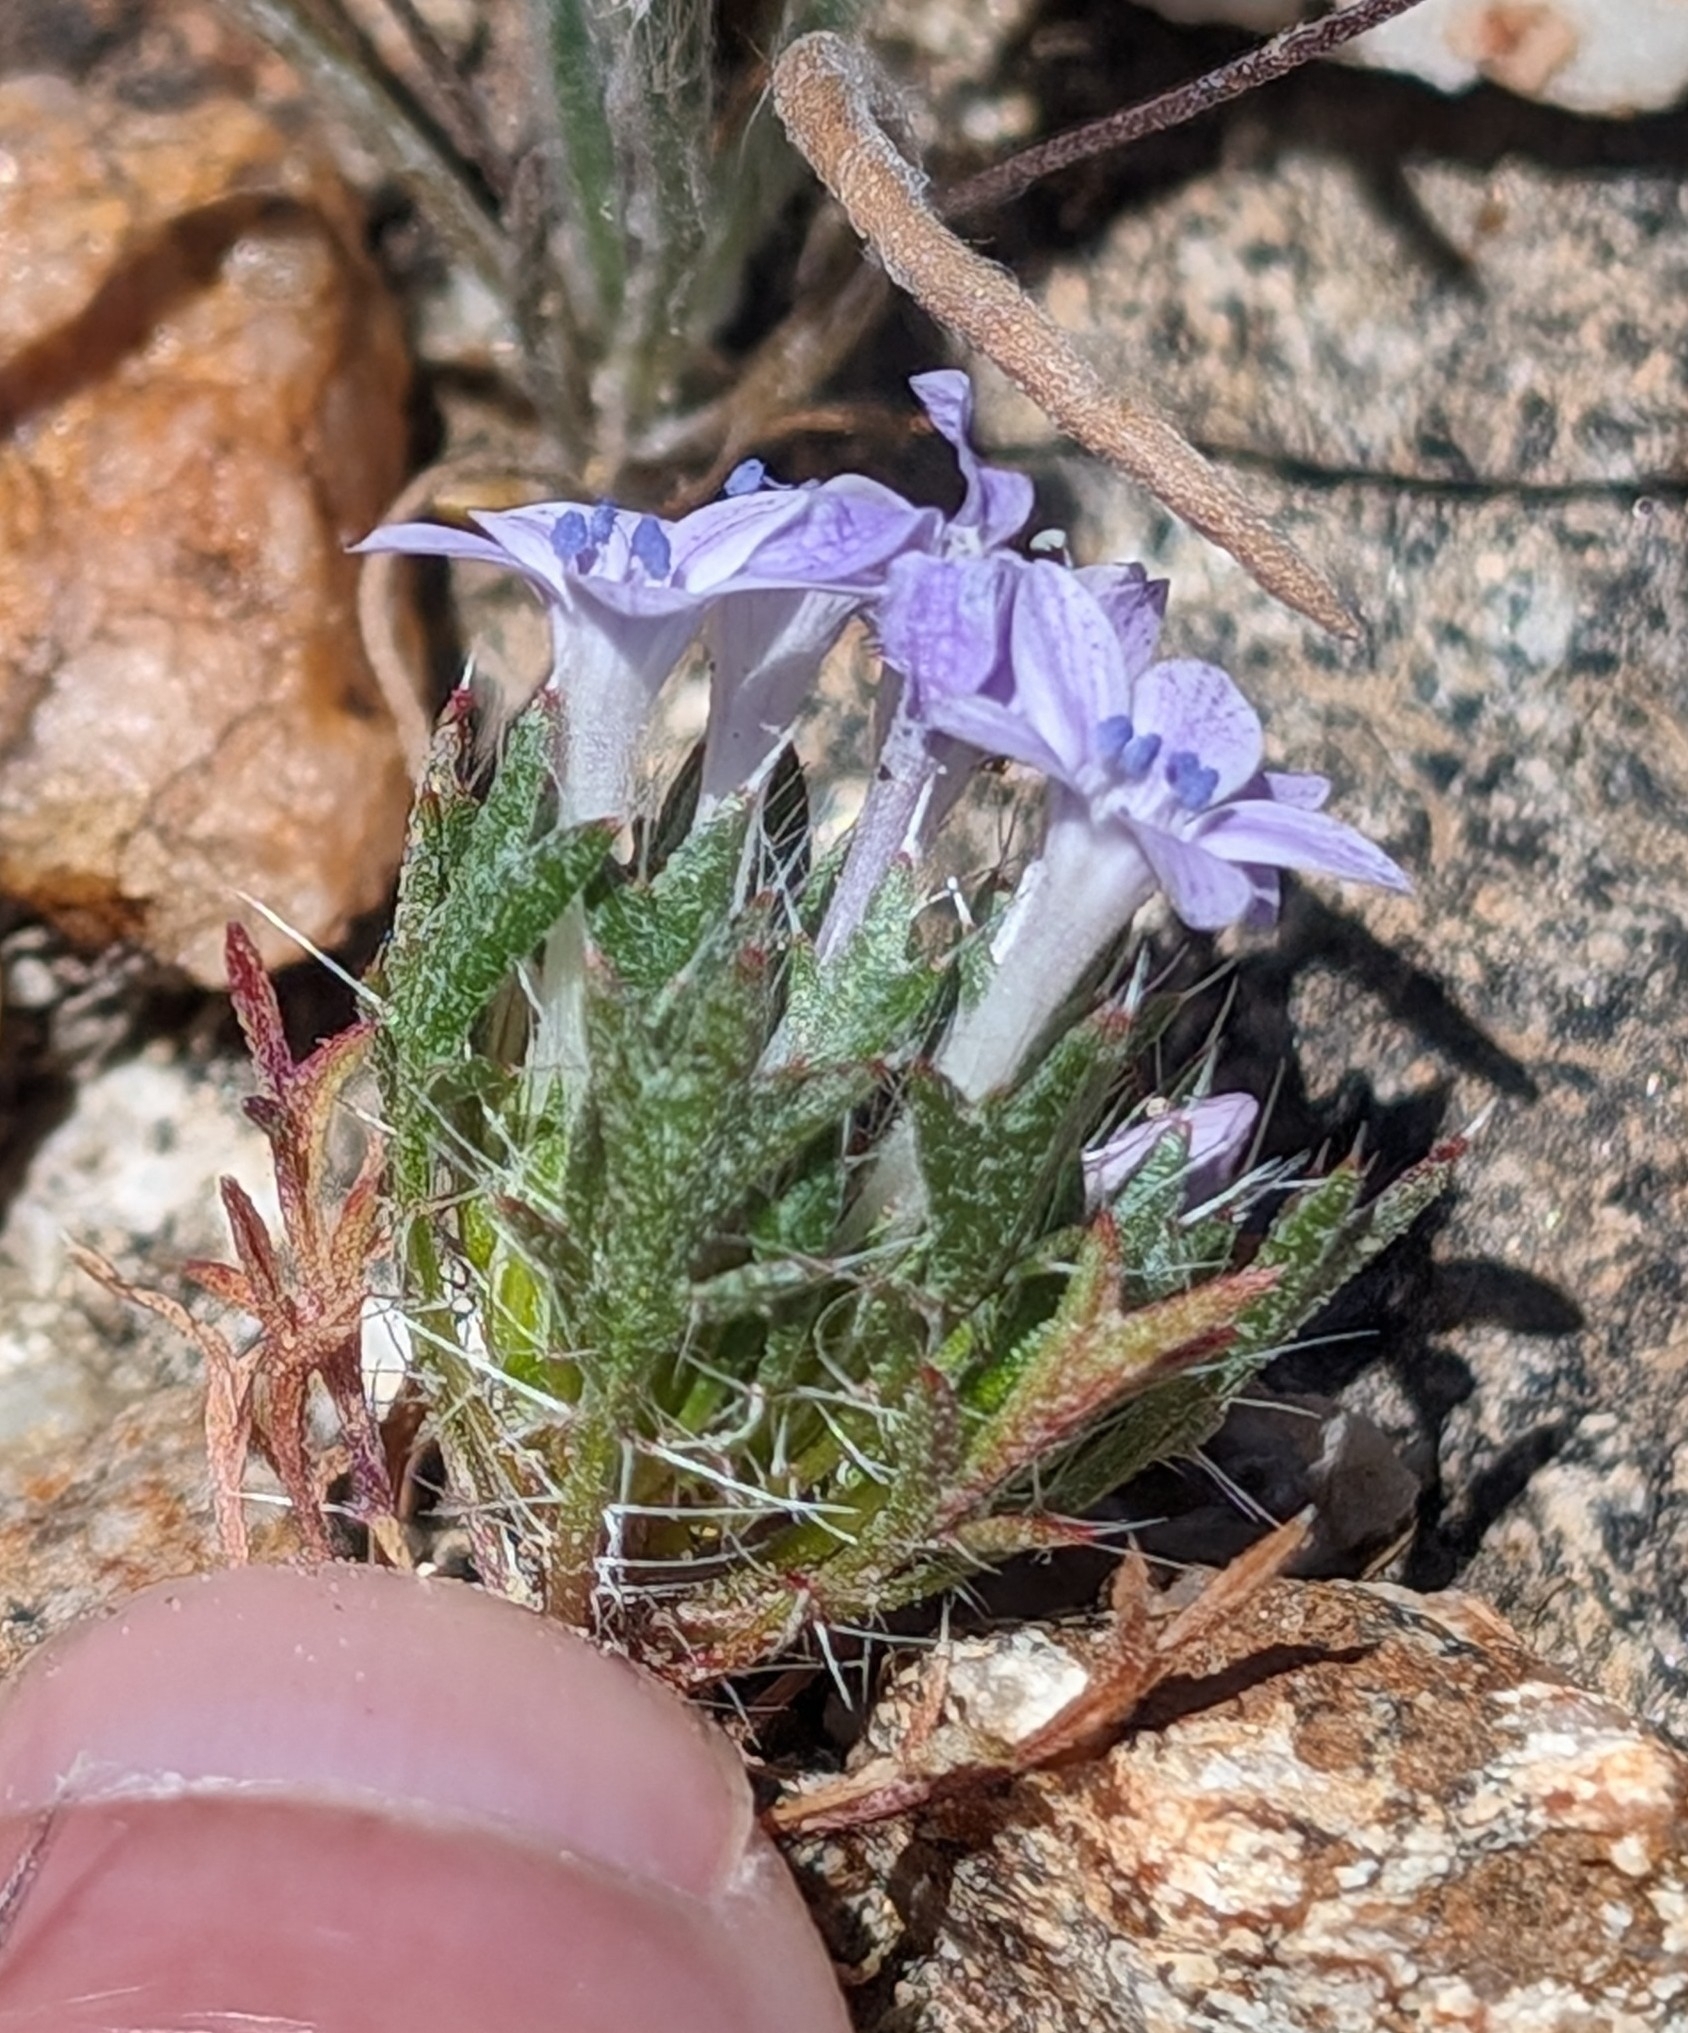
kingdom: Plantae
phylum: Tracheophyta
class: Magnoliopsida
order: Ericales
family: Polemoniaceae
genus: Langloisia
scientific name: Langloisia setosissima
